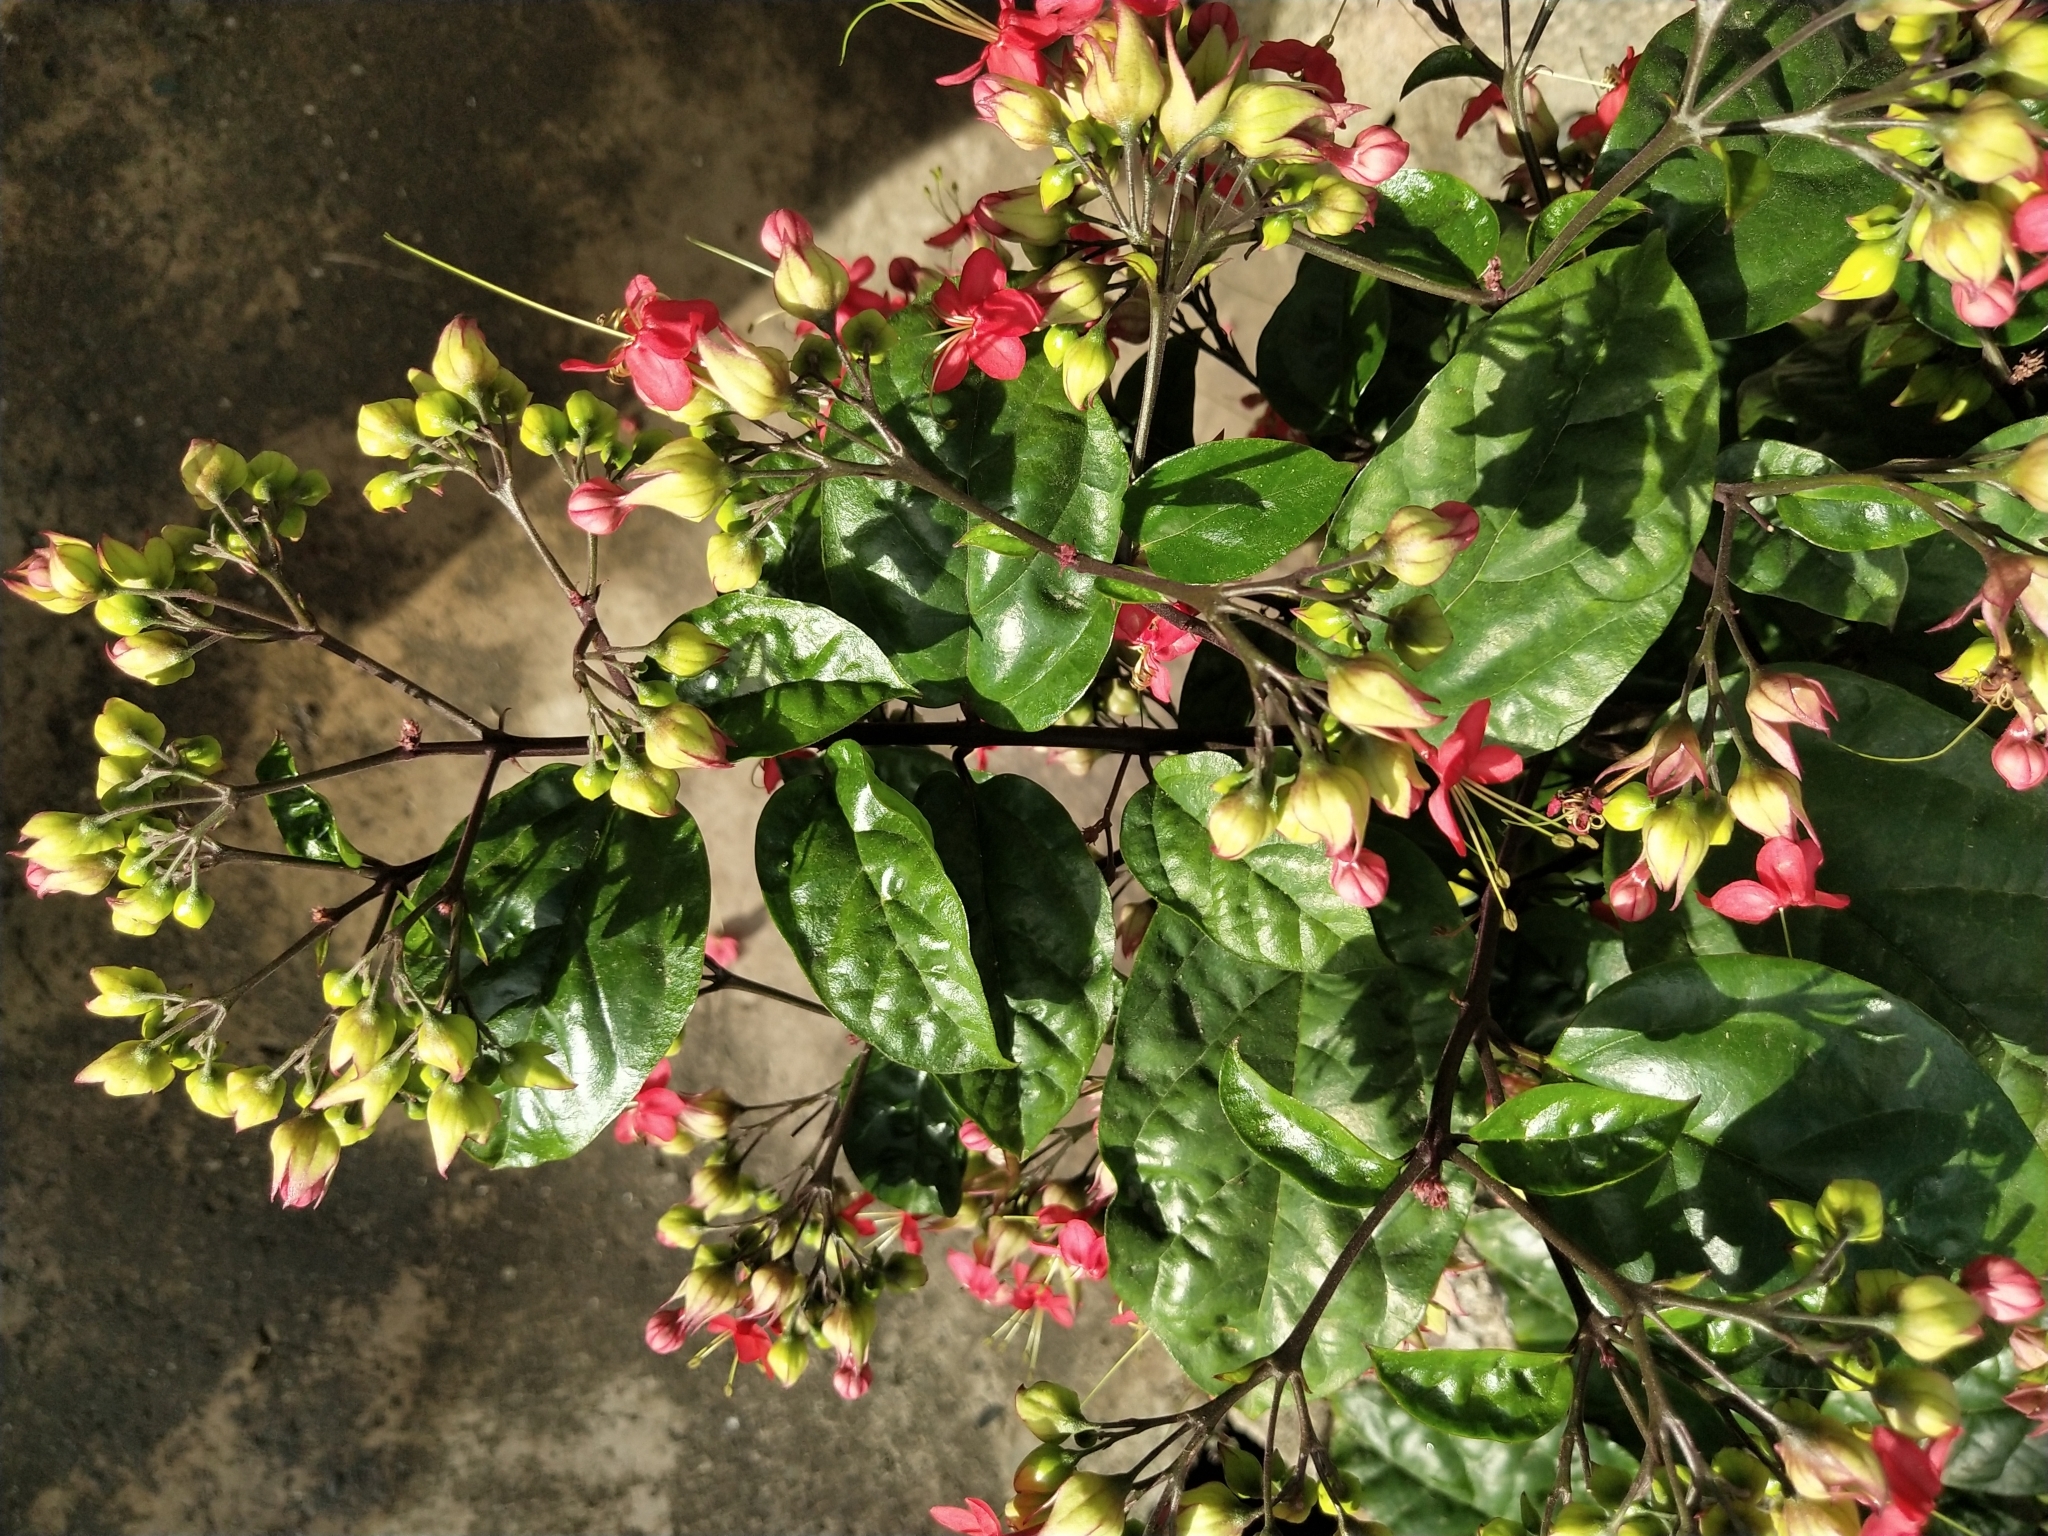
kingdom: Plantae
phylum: Tracheophyta
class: Magnoliopsida
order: Lamiales
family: Lamiaceae
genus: Clerodendrum
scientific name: Clerodendrum speciosum
